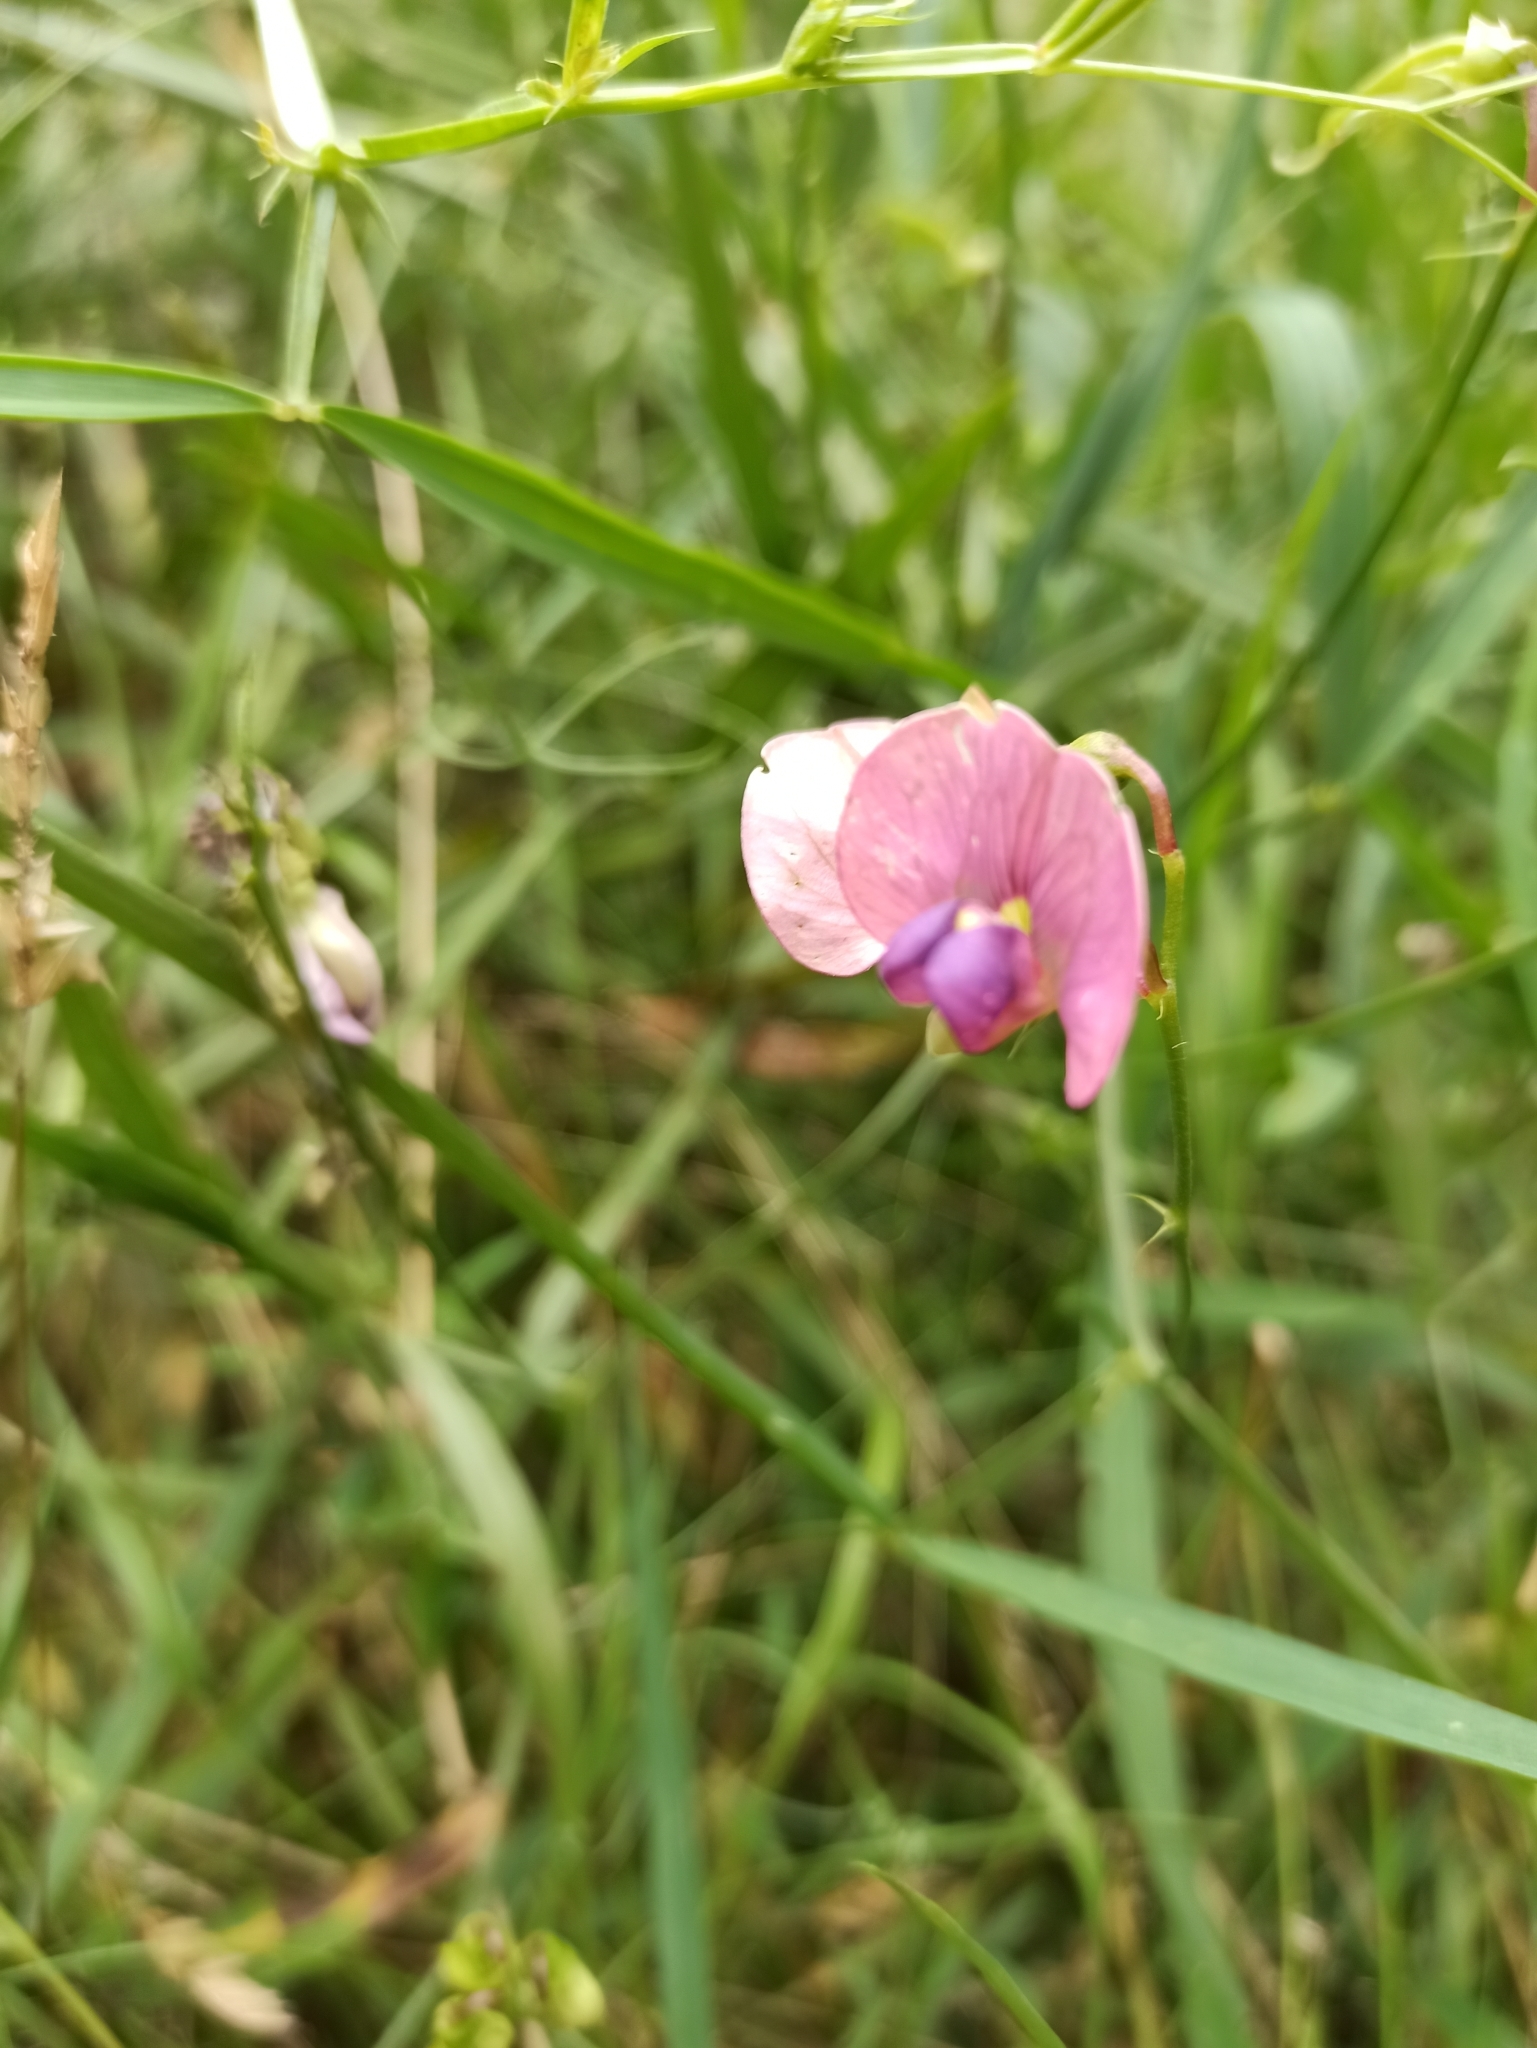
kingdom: Plantae
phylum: Tracheophyta
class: Magnoliopsida
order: Fabales
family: Fabaceae
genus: Lathyrus
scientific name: Lathyrus sylvestris
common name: Flat pea
